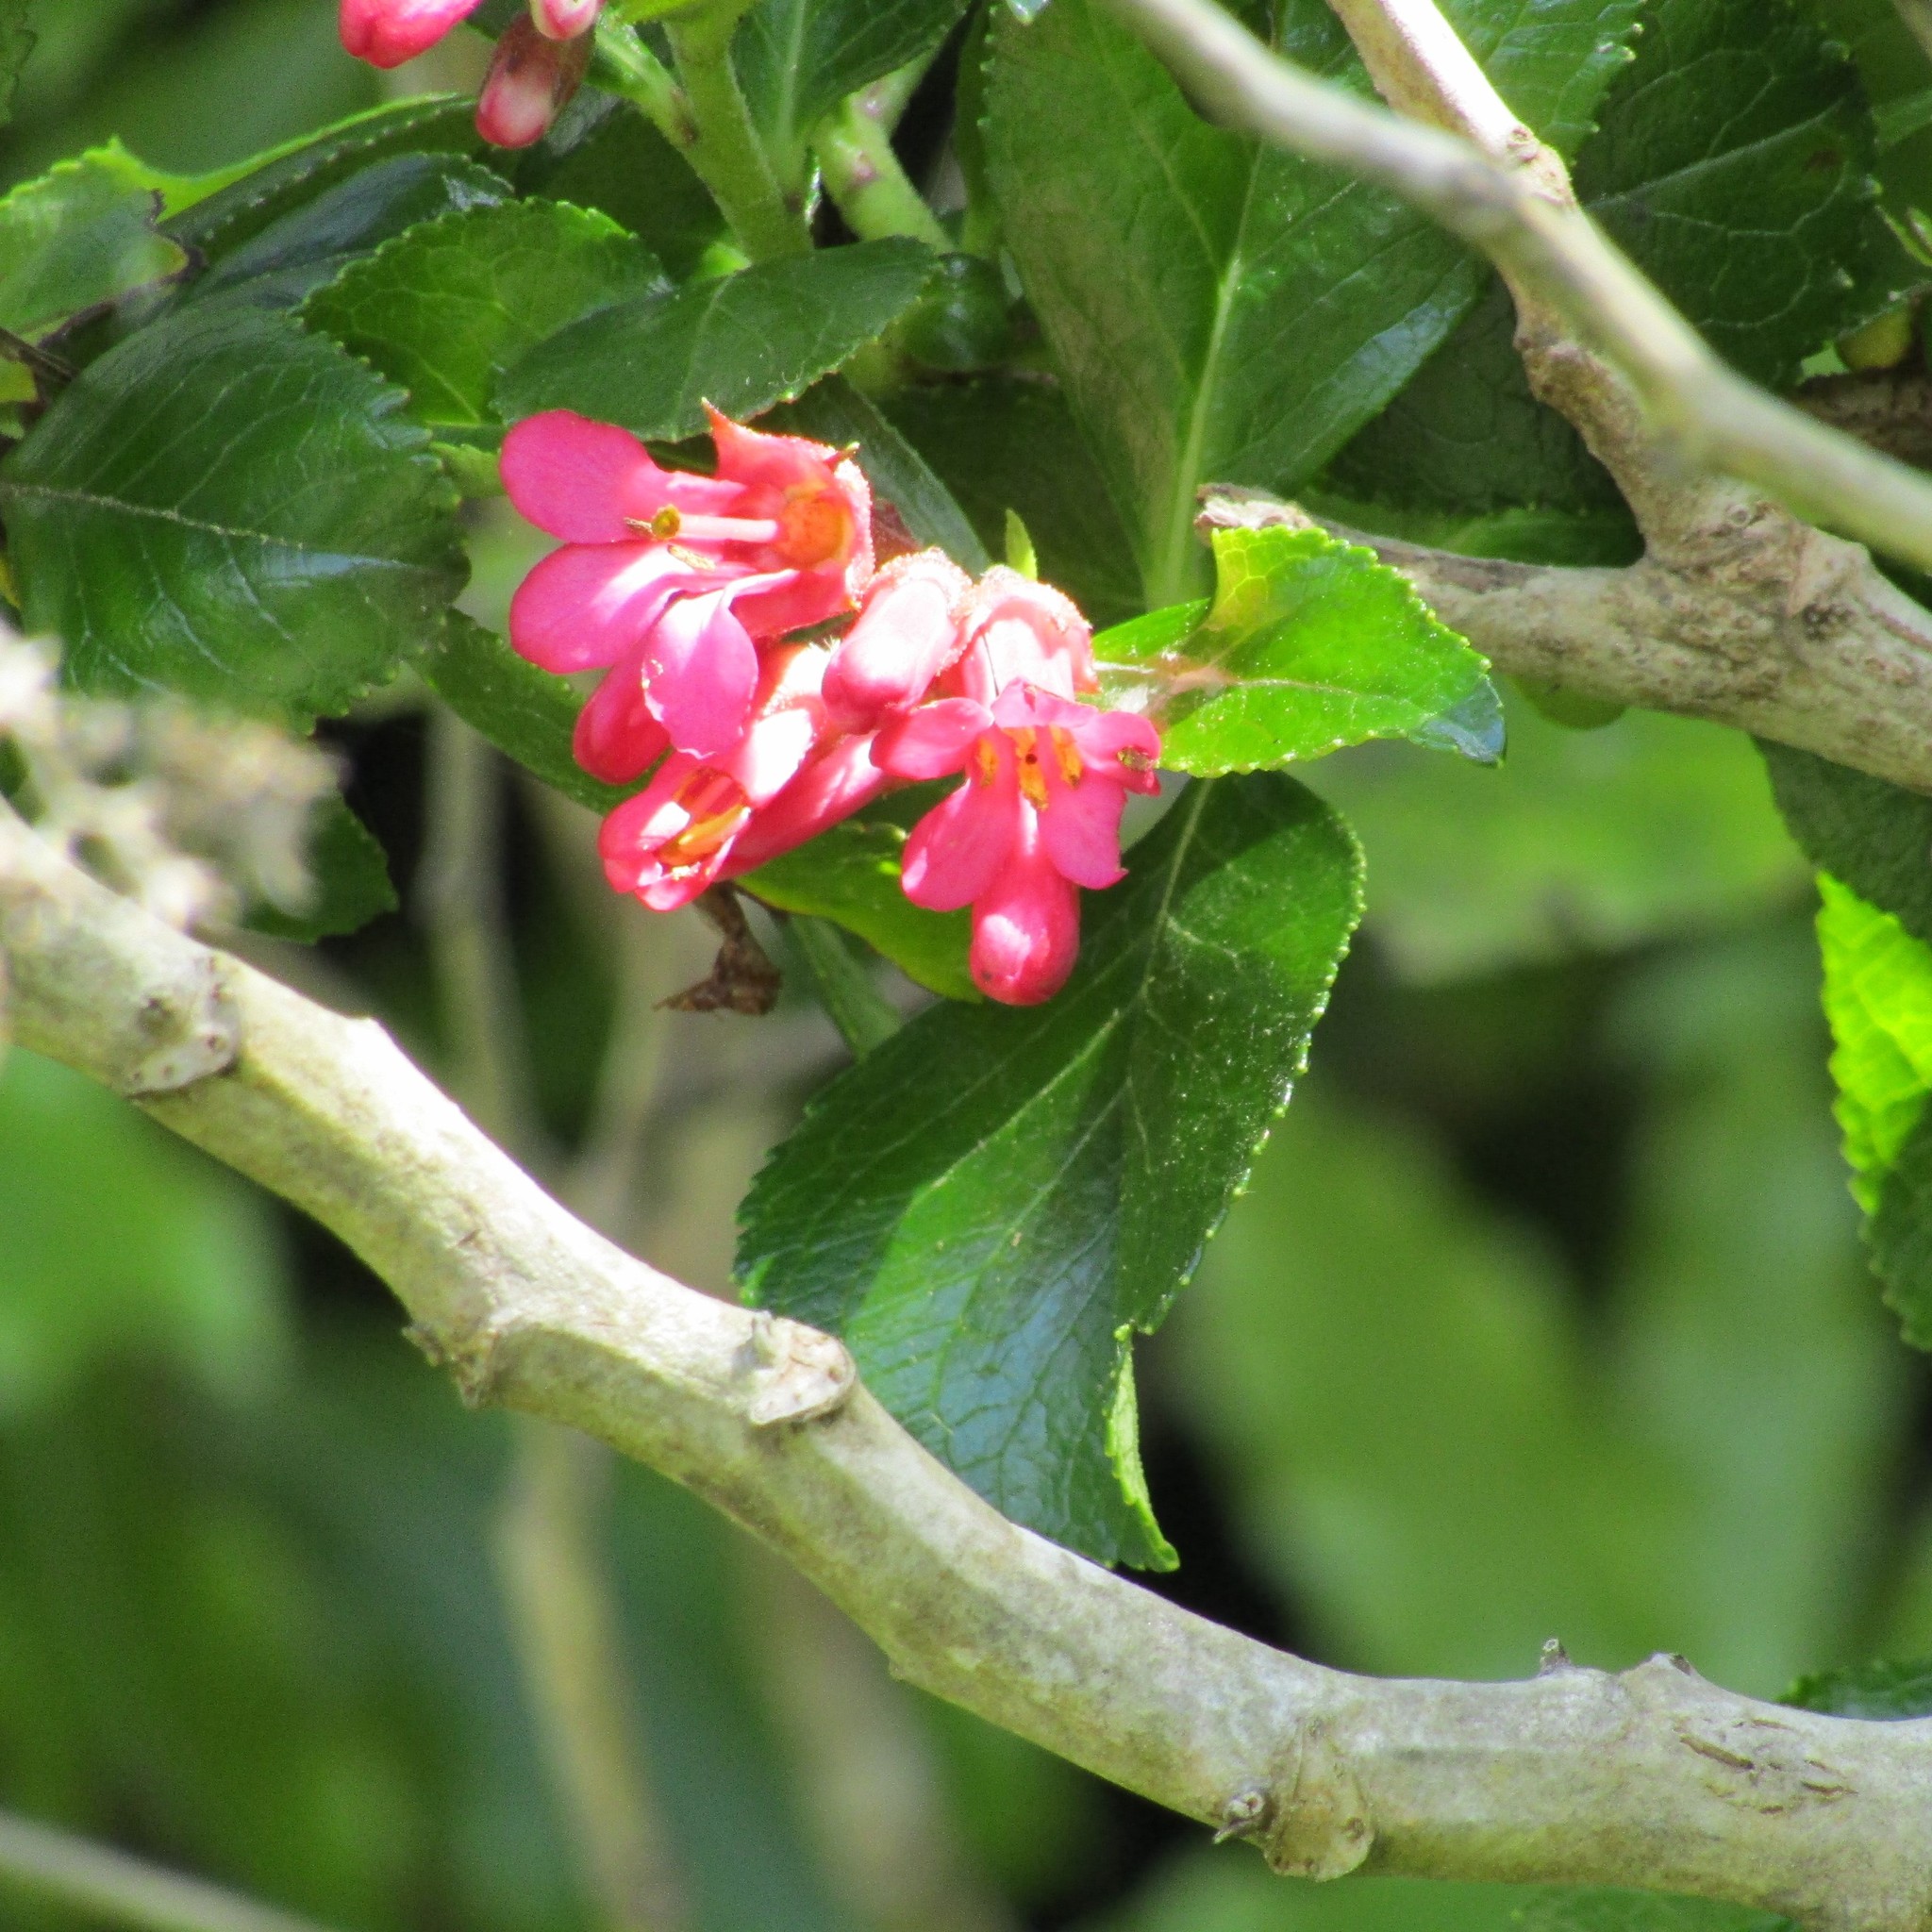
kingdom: Plantae
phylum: Tracheophyta
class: Magnoliopsida
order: Escalloniales
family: Escalloniaceae
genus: Escallonia
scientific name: Escallonia rubra
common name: Redclaws
